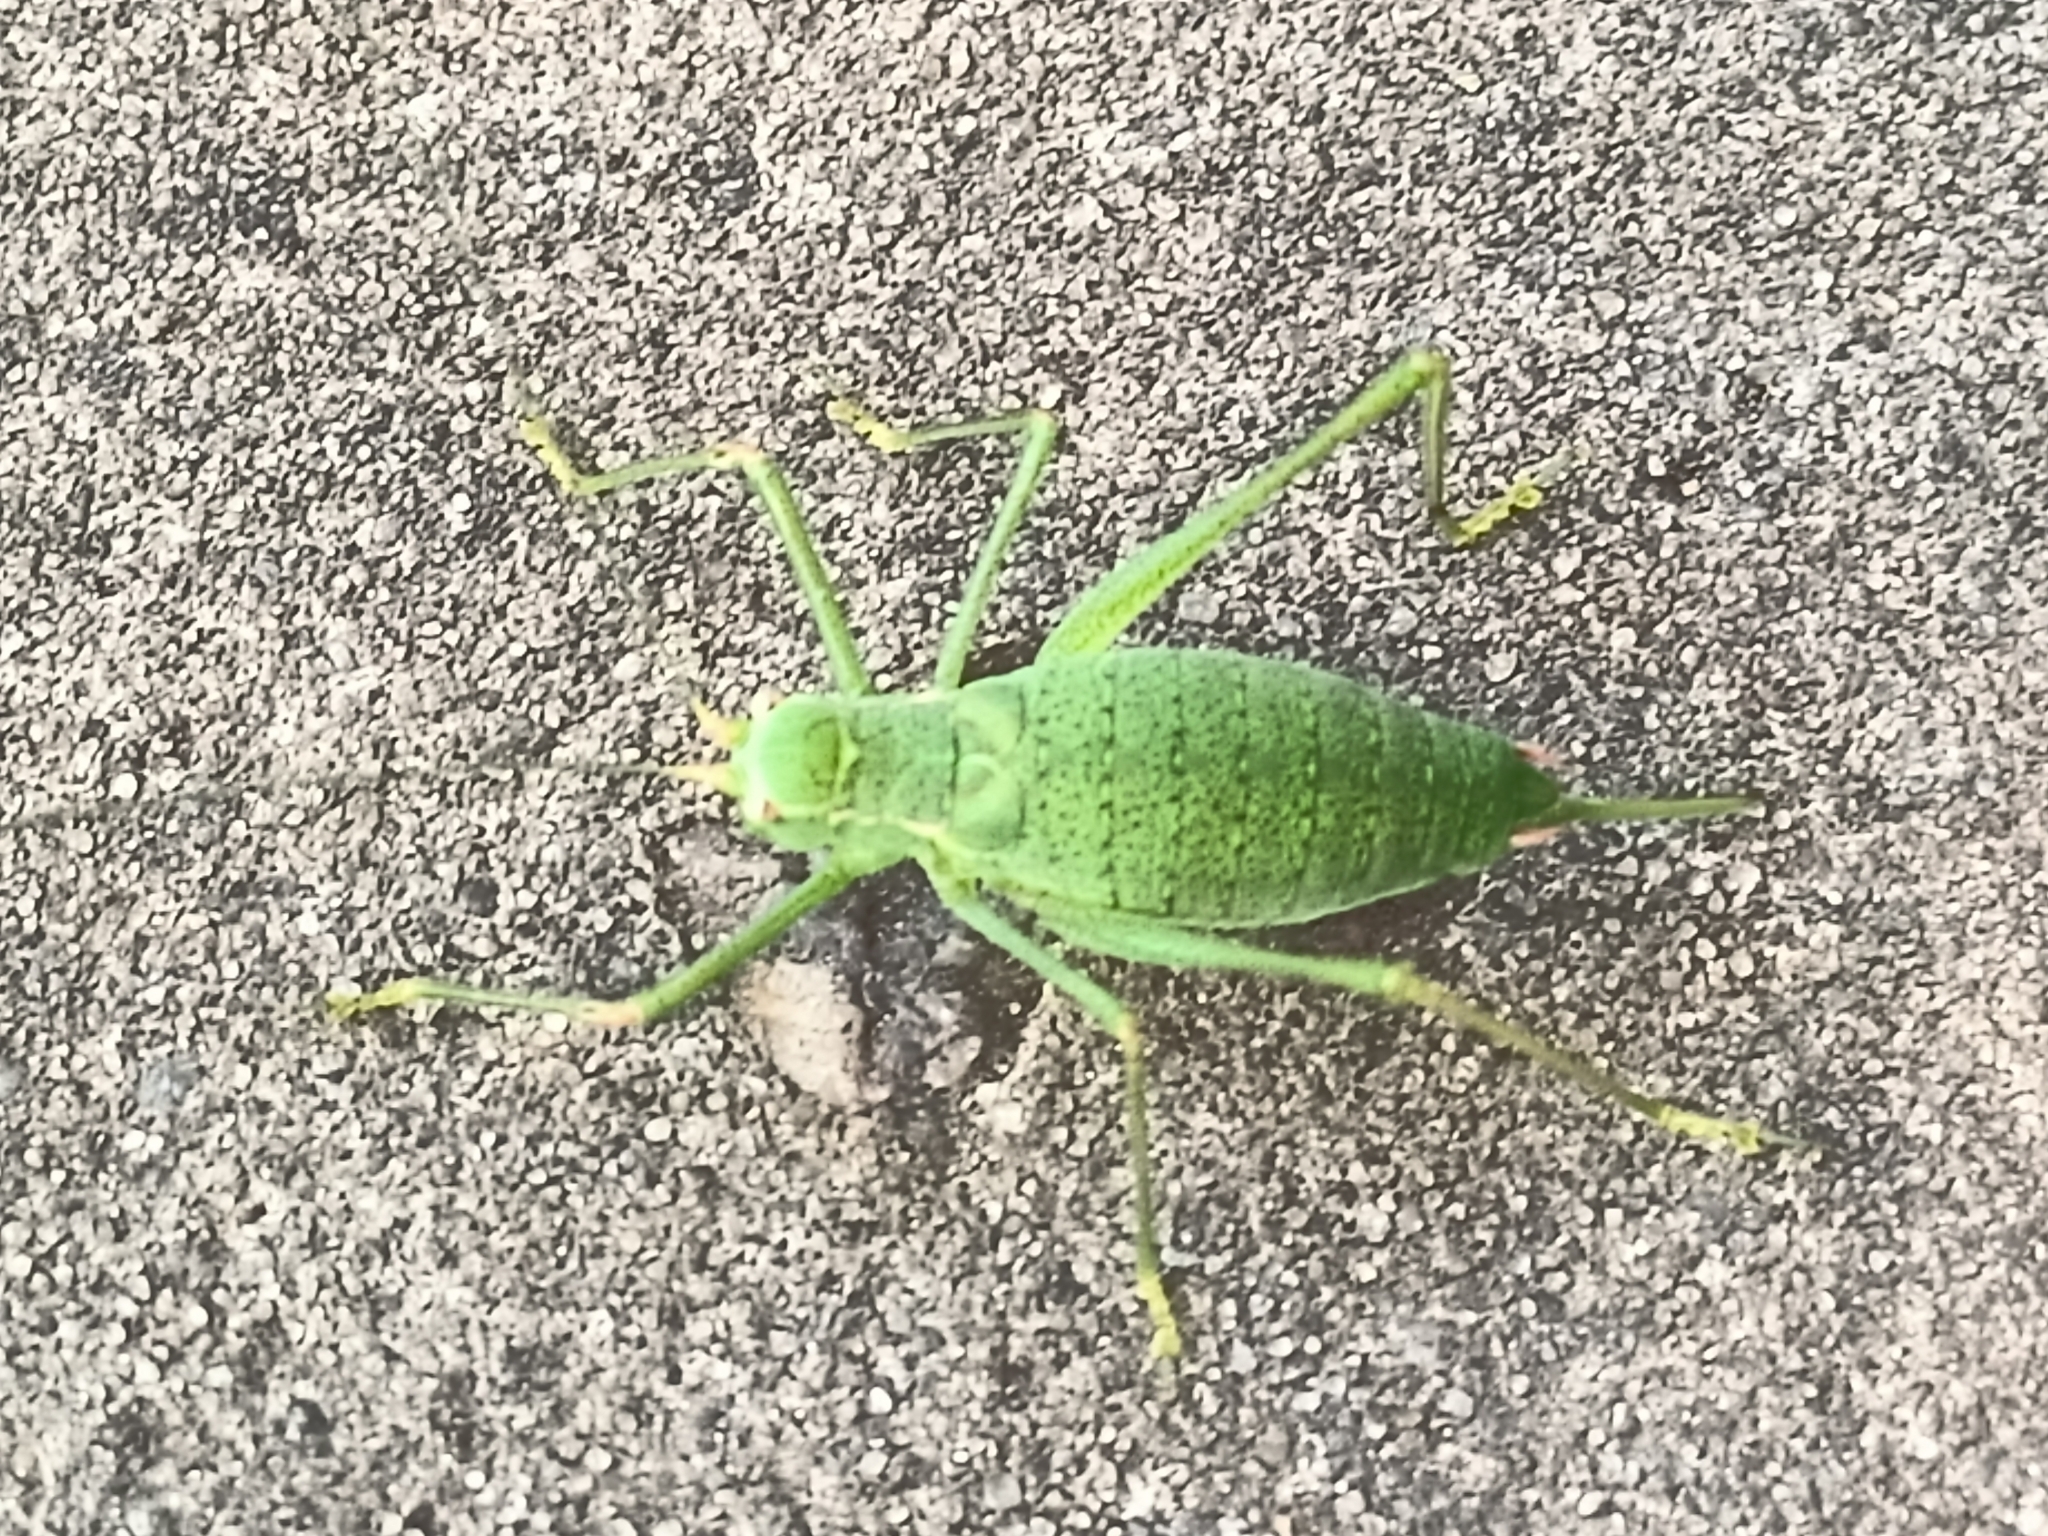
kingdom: Animalia
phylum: Arthropoda
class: Insecta
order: Orthoptera
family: Tettigoniidae
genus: Leptophyes
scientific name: Leptophyes punctatissima
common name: Speckled bush-cricket
